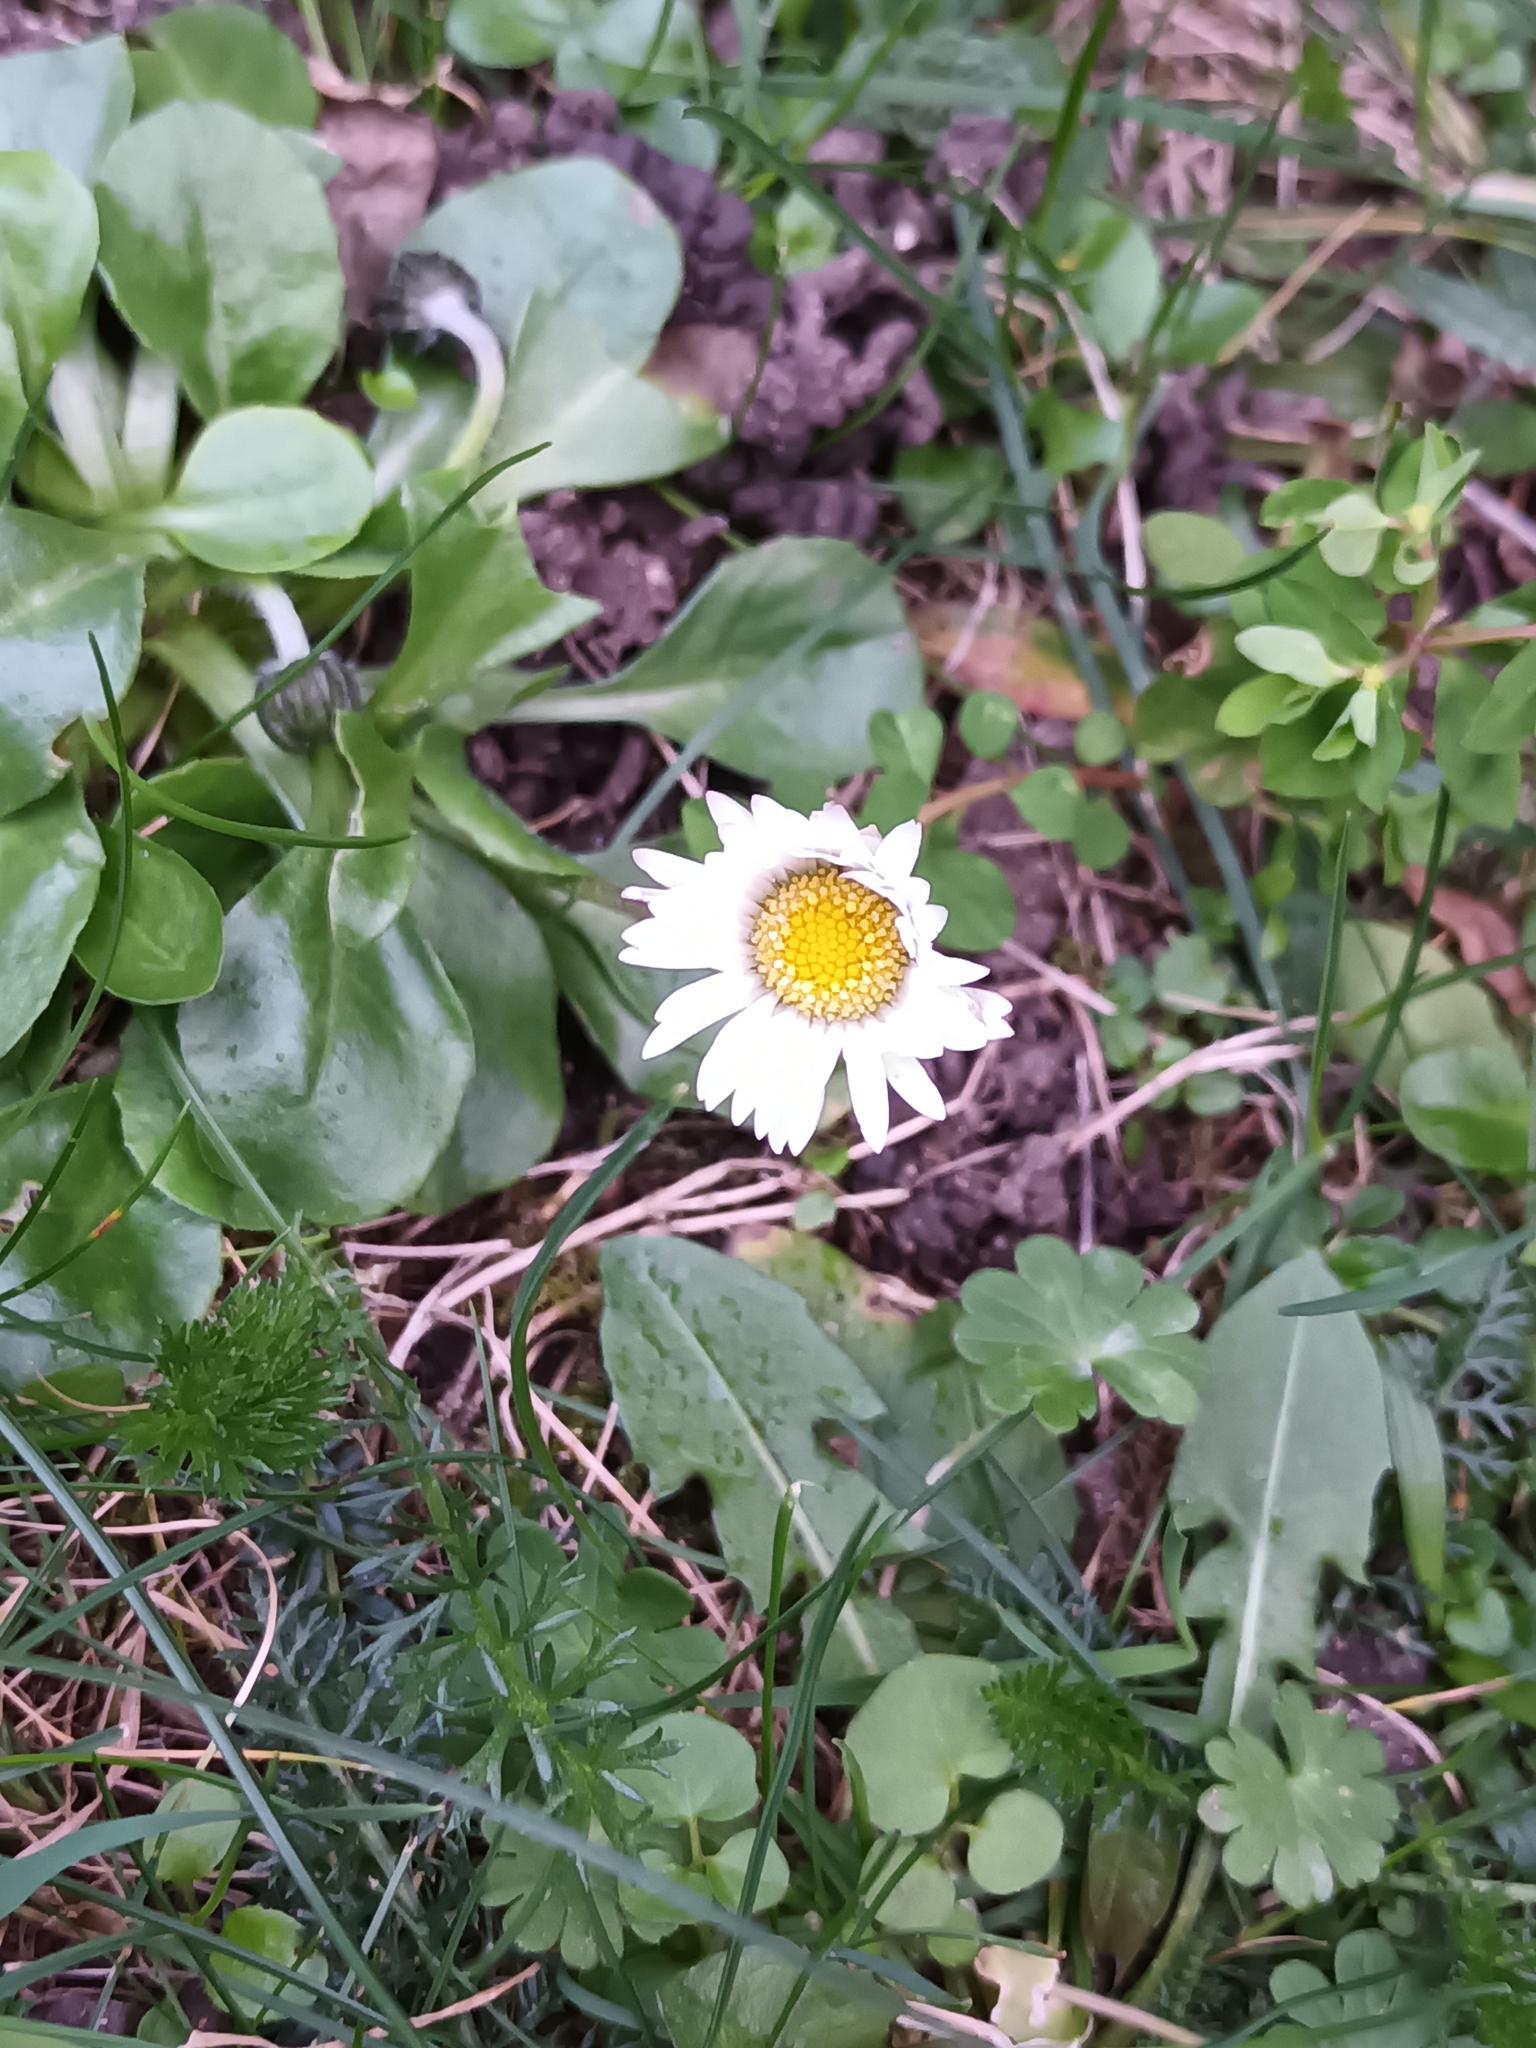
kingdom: Plantae
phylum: Tracheophyta
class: Magnoliopsida
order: Asterales
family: Asteraceae
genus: Bellis
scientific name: Bellis perennis
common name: Lawndaisy
